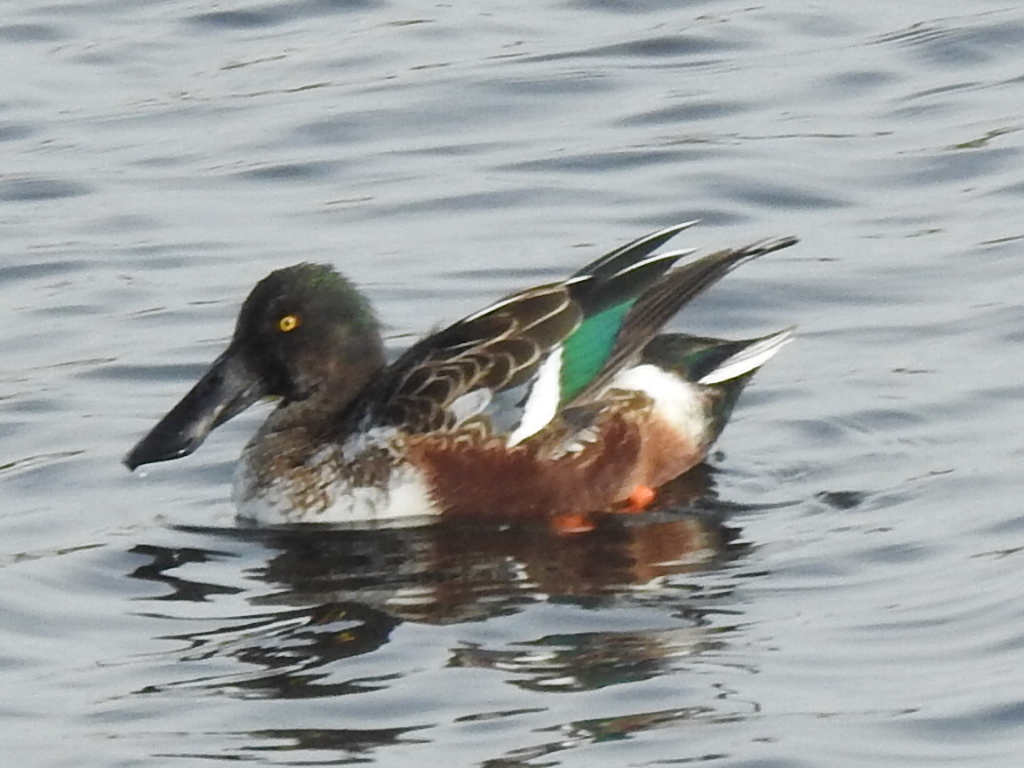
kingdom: Animalia
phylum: Chordata
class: Aves
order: Anseriformes
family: Anatidae
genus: Spatula
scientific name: Spatula clypeata
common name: Northern shoveler
